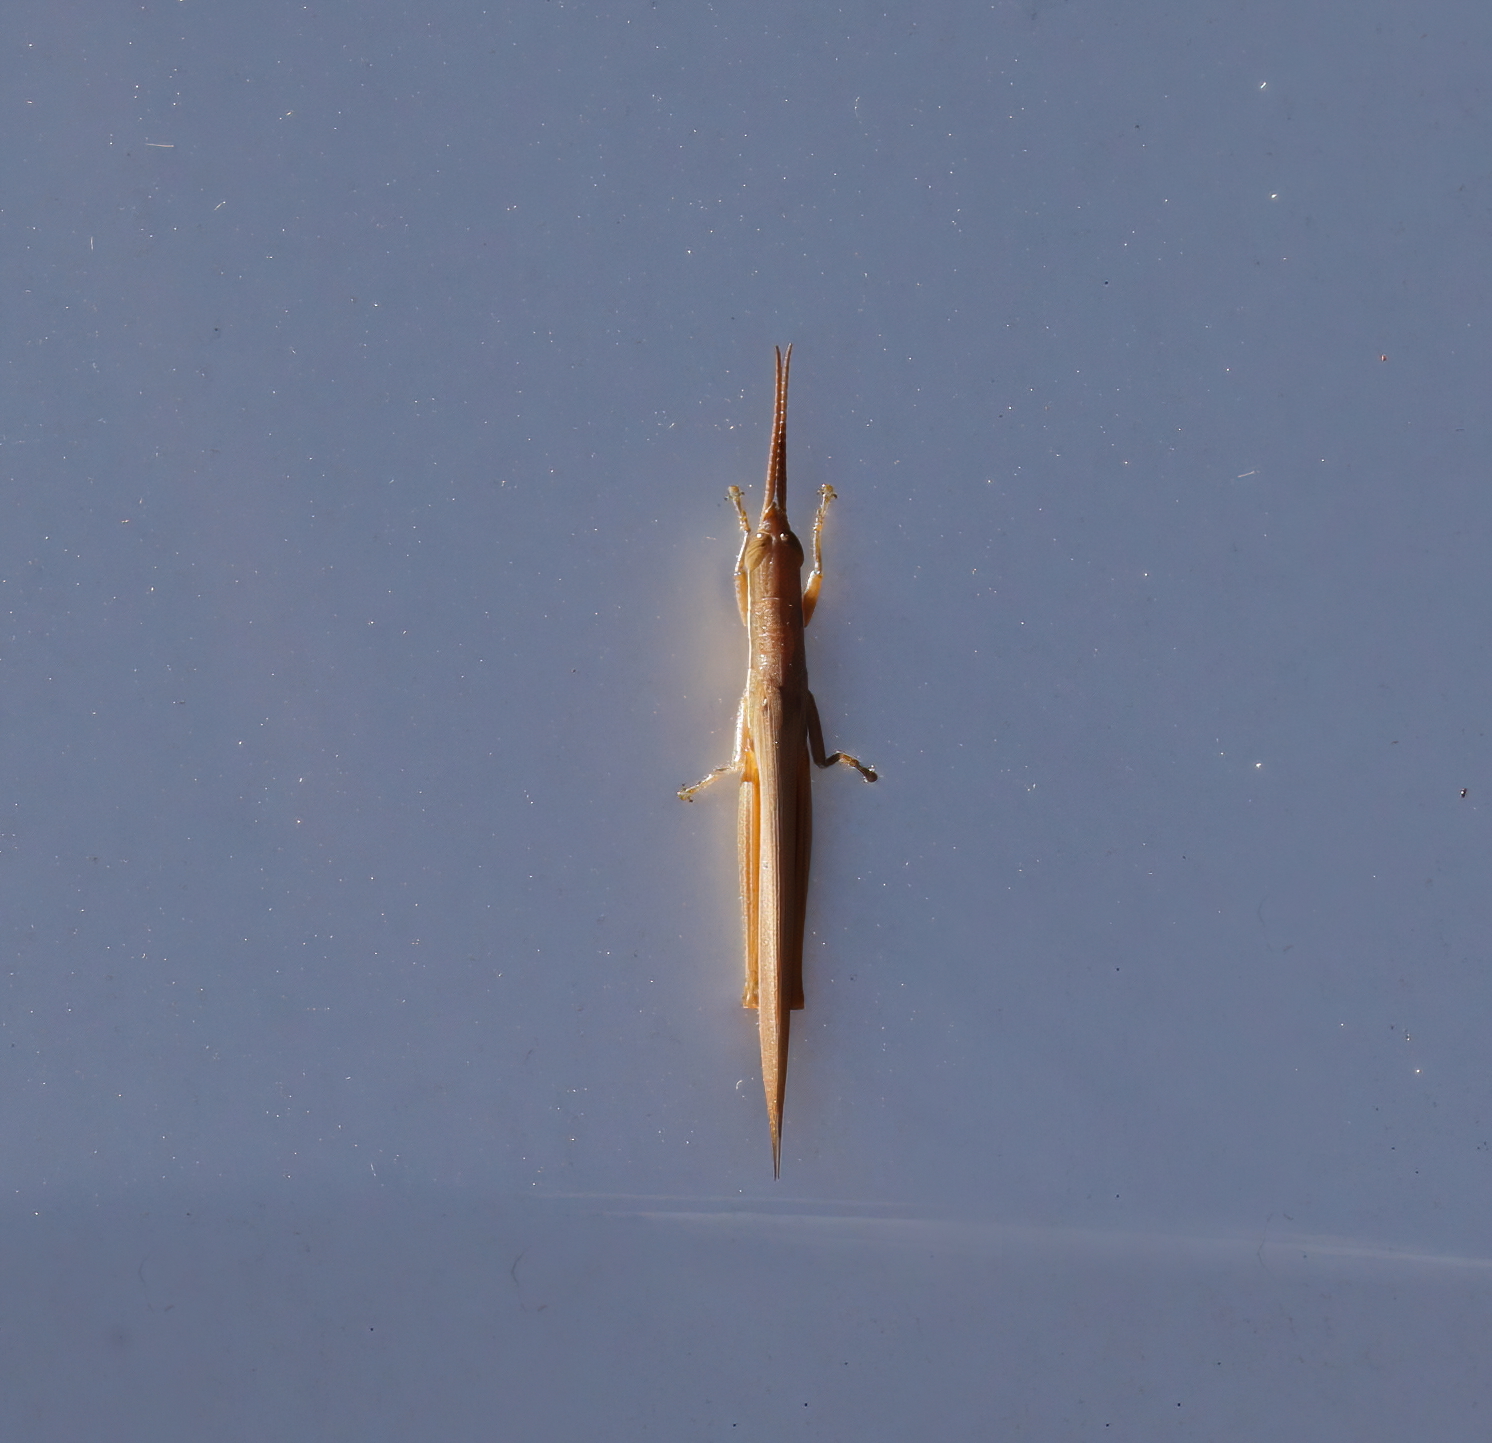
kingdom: Animalia
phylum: Arthropoda
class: Insecta
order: Orthoptera
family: Acrididae
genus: Leptysma
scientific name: Leptysma marginicollis
